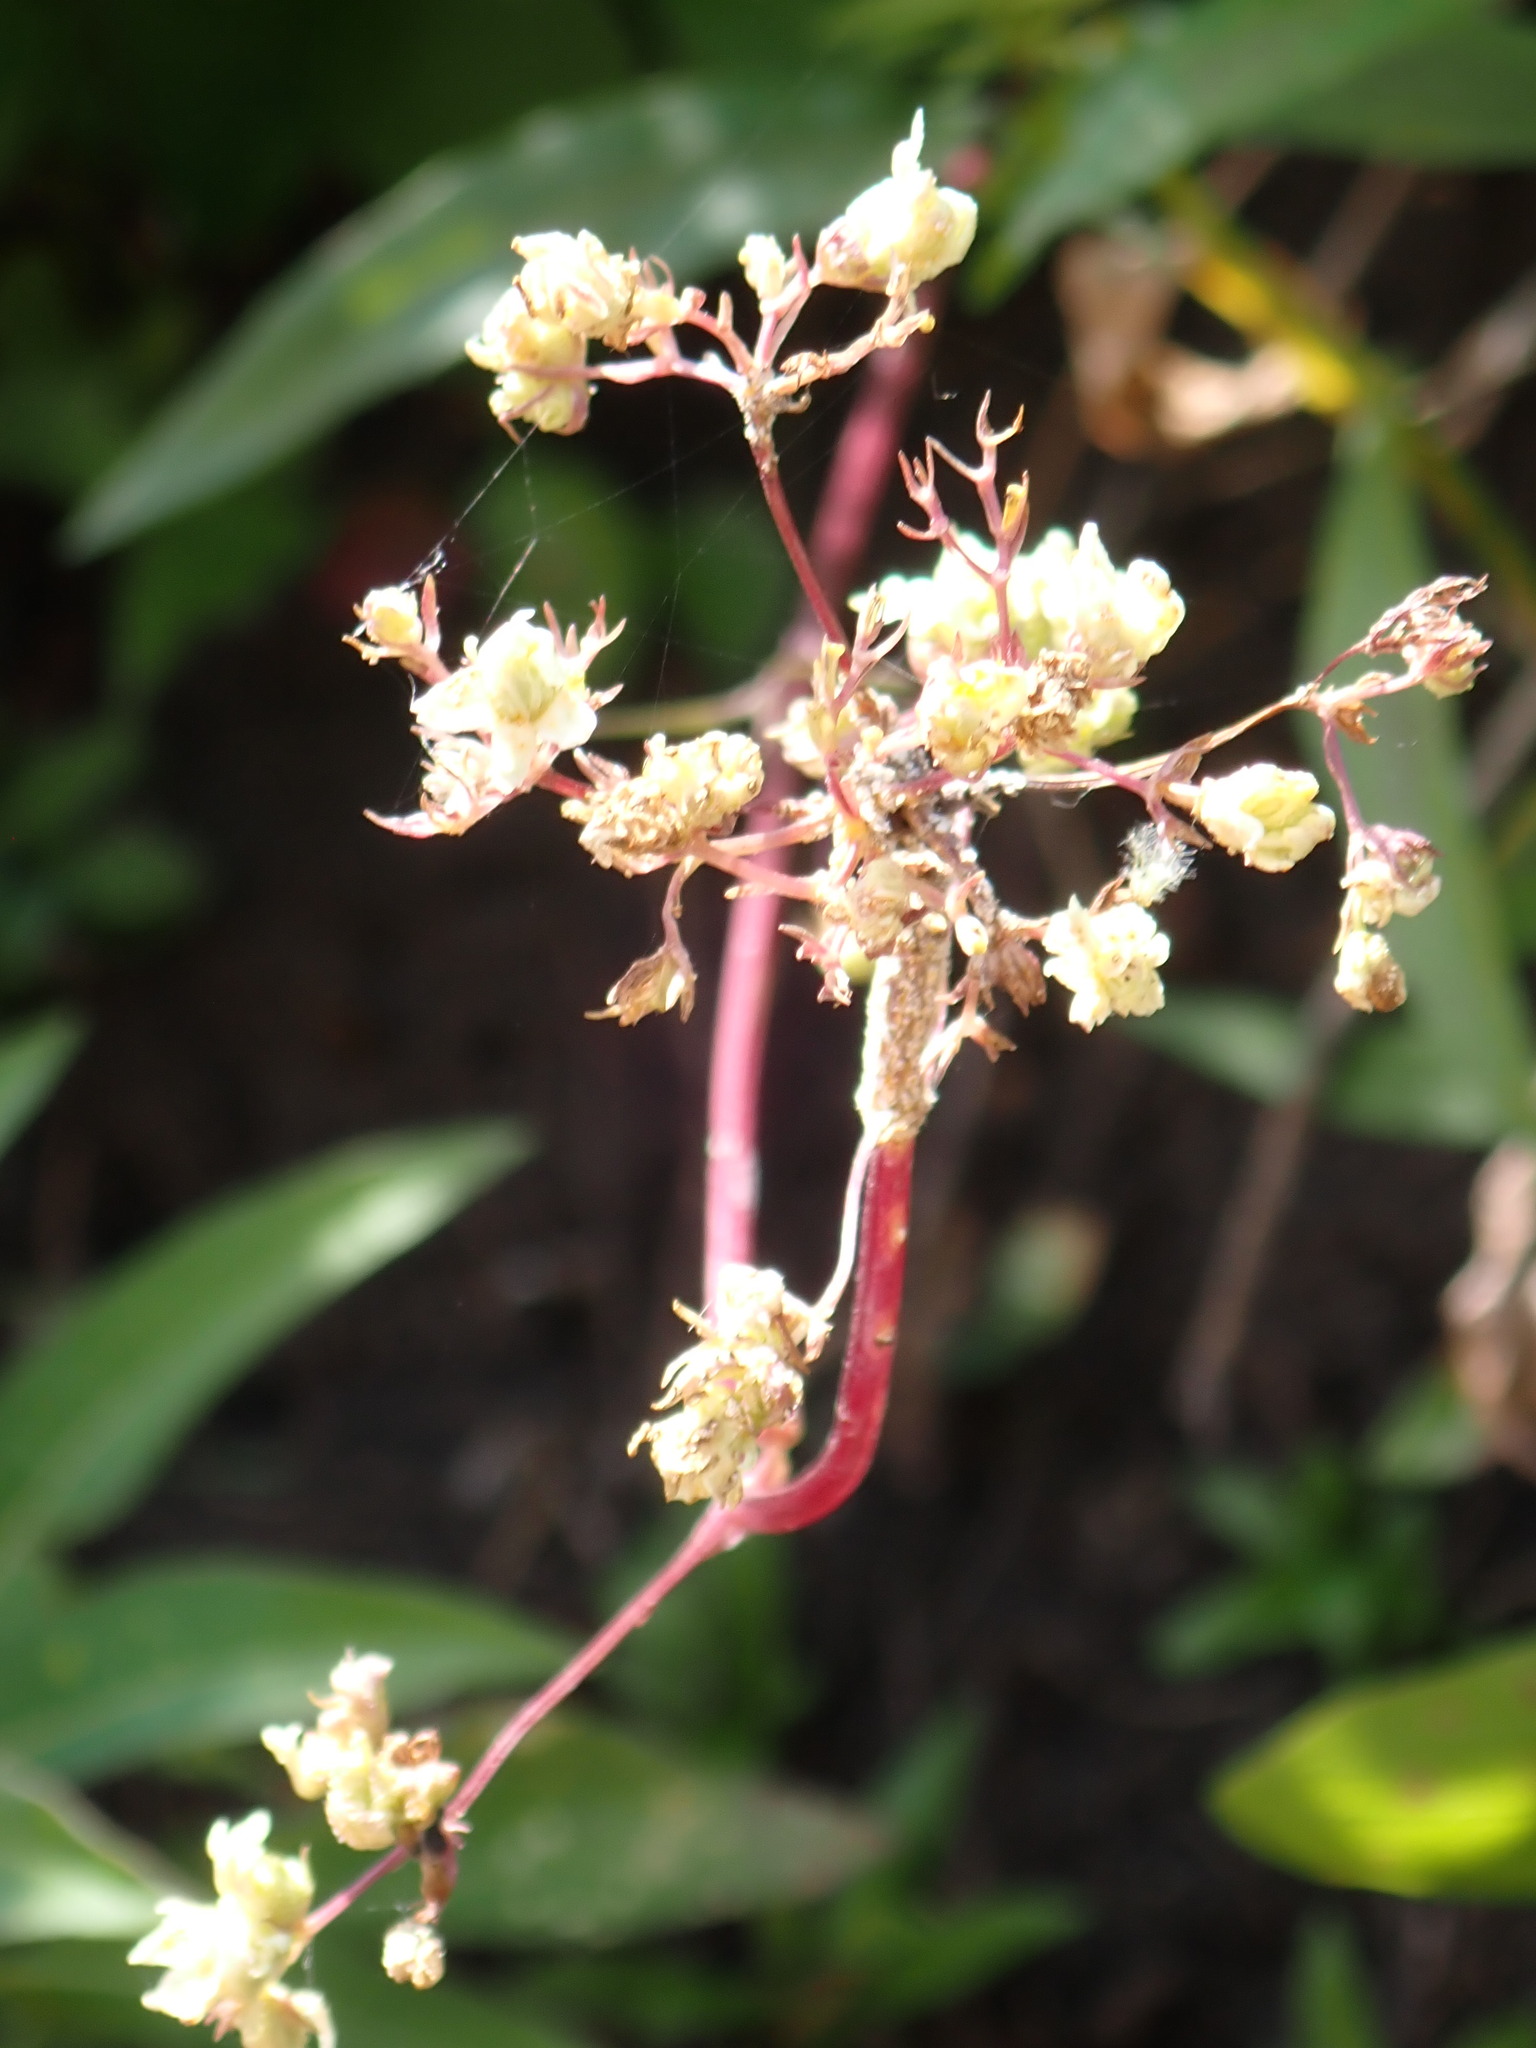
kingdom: Plantae
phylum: Tracheophyta
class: Magnoliopsida
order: Dipsacales
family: Caprifoliaceae
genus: Valeriana
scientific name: Valeriana dioica
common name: Marsh valerian
